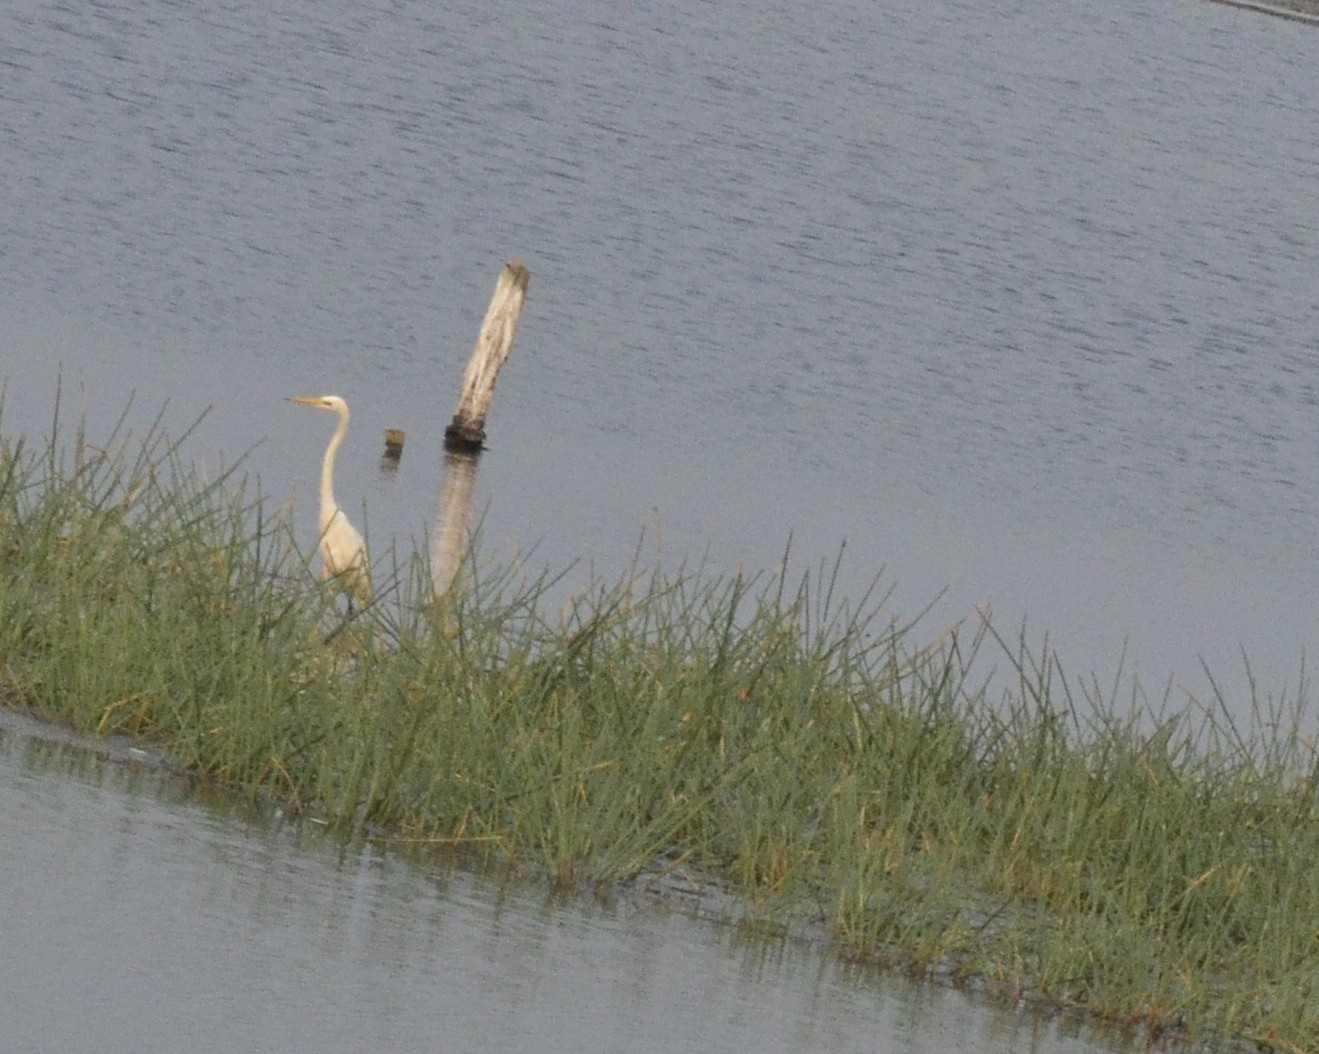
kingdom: Animalia
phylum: Chordata
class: Aves
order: Pelecaniformes
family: Ardeidae
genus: Ardea
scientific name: Ardea alba
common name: Great egret
